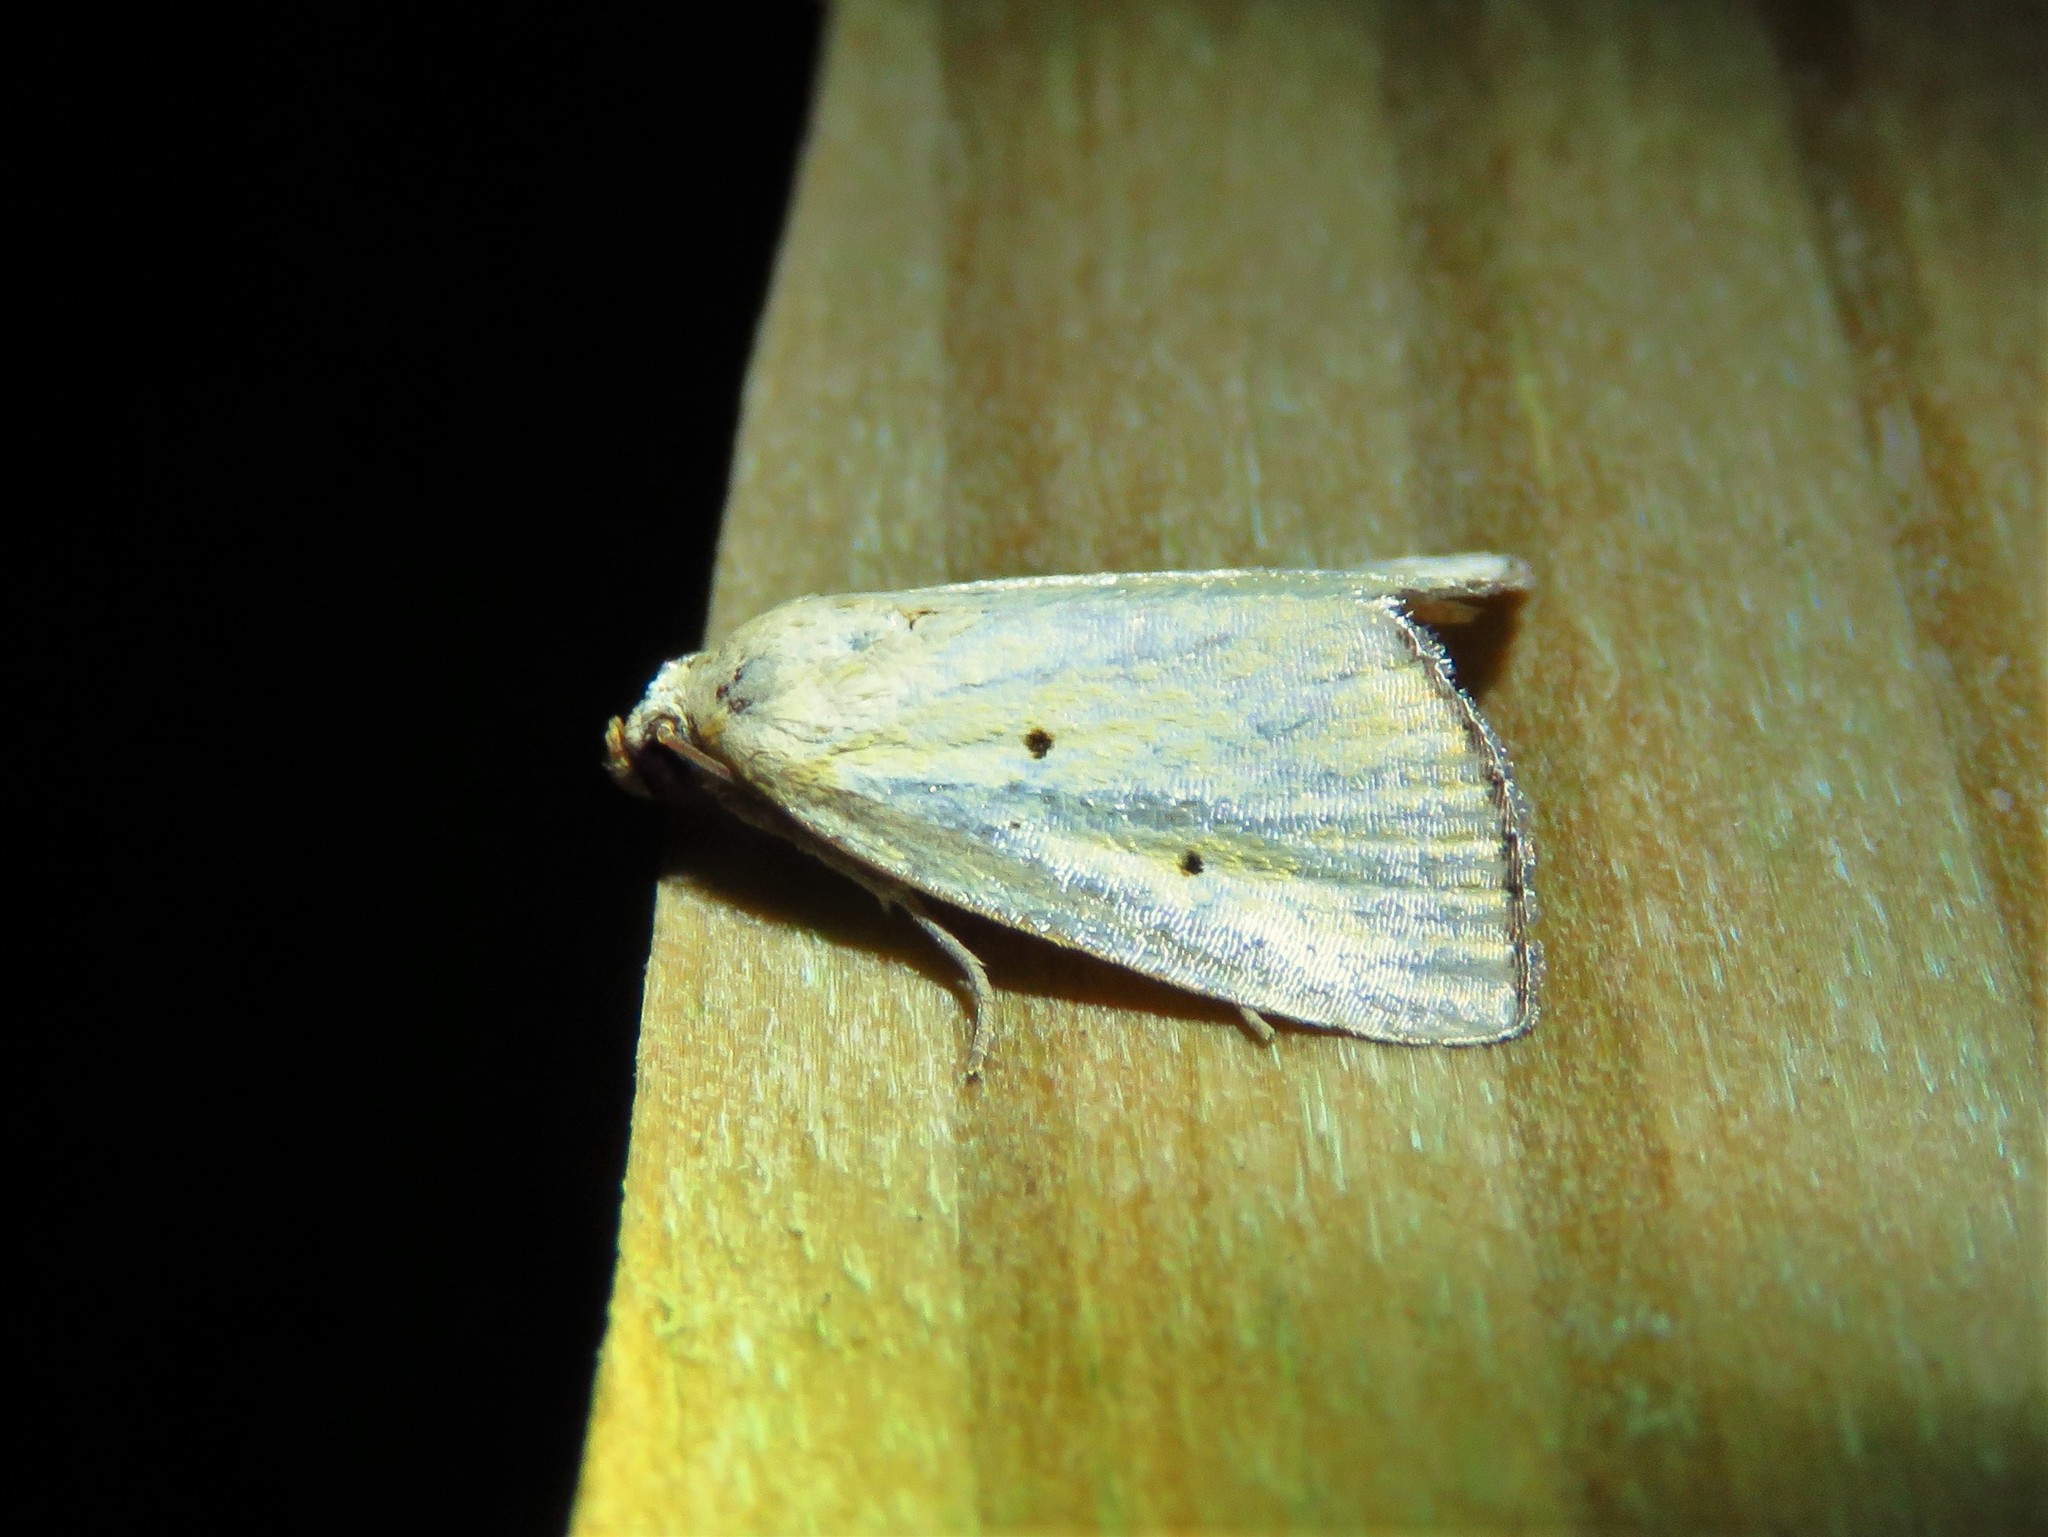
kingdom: Animalia
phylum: Arthropoda
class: Insecta
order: Lepidoptera
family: Noctuidae
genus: Marimatha
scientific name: Marimatha nigrofimbria
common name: Black-bordered lemon moth
